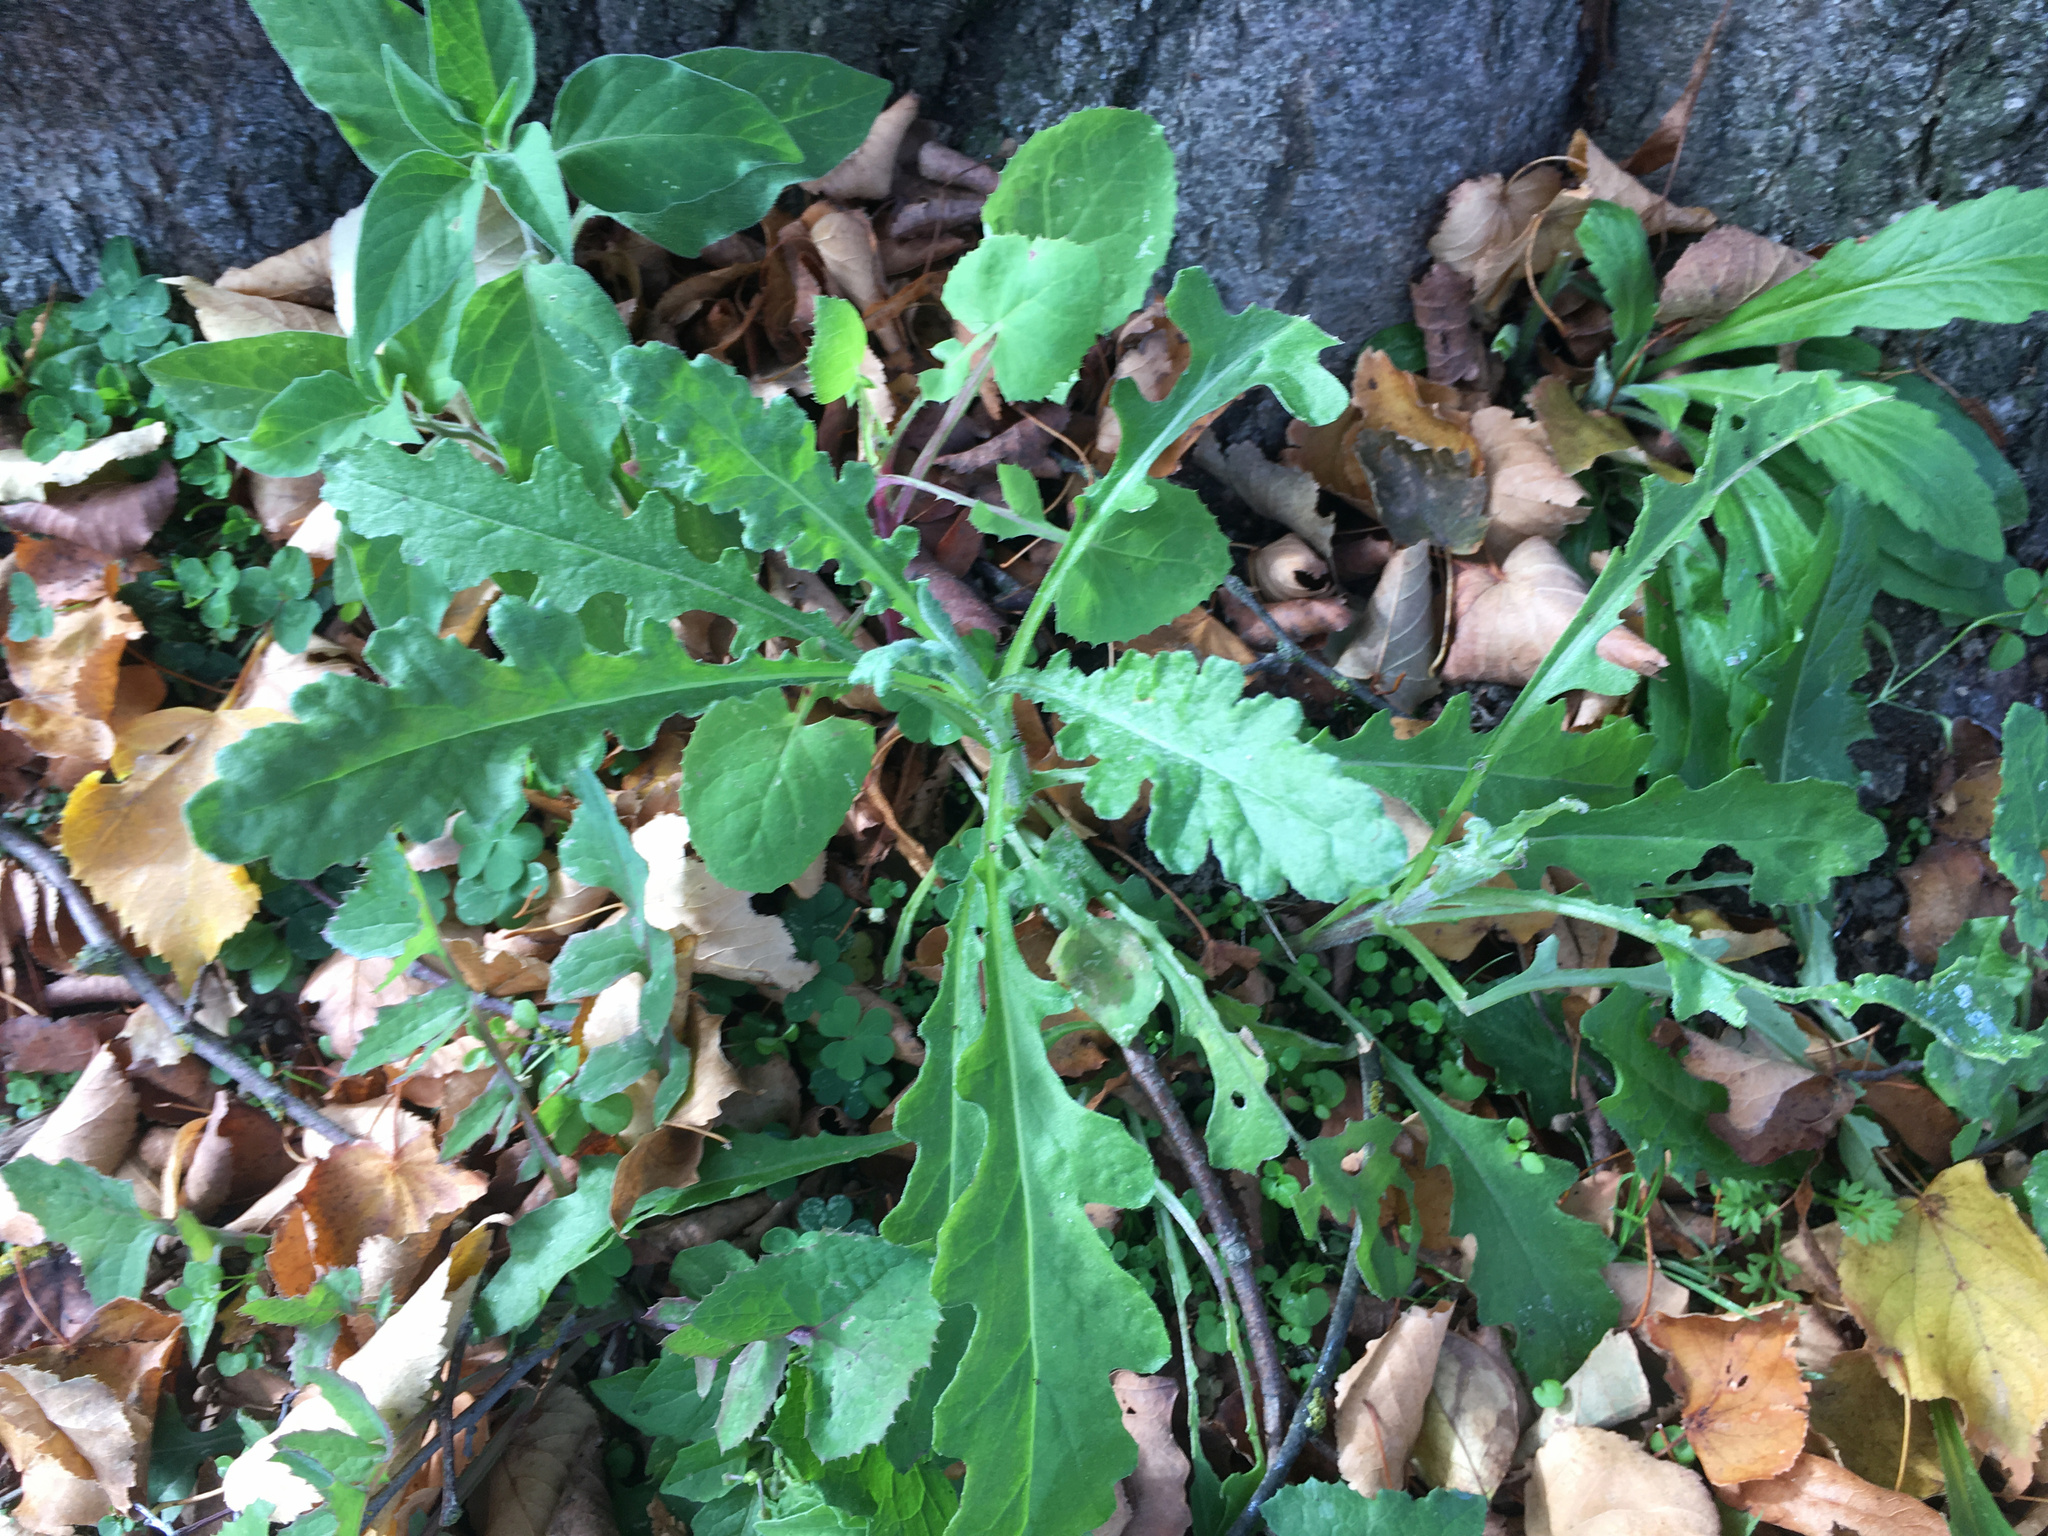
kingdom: Plantae
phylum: Tracheophyta
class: Magnoliopsida
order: Asterales
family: Asteraceae
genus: Senecio
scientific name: Senecio glomeratus
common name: Cutleaf burnweed
